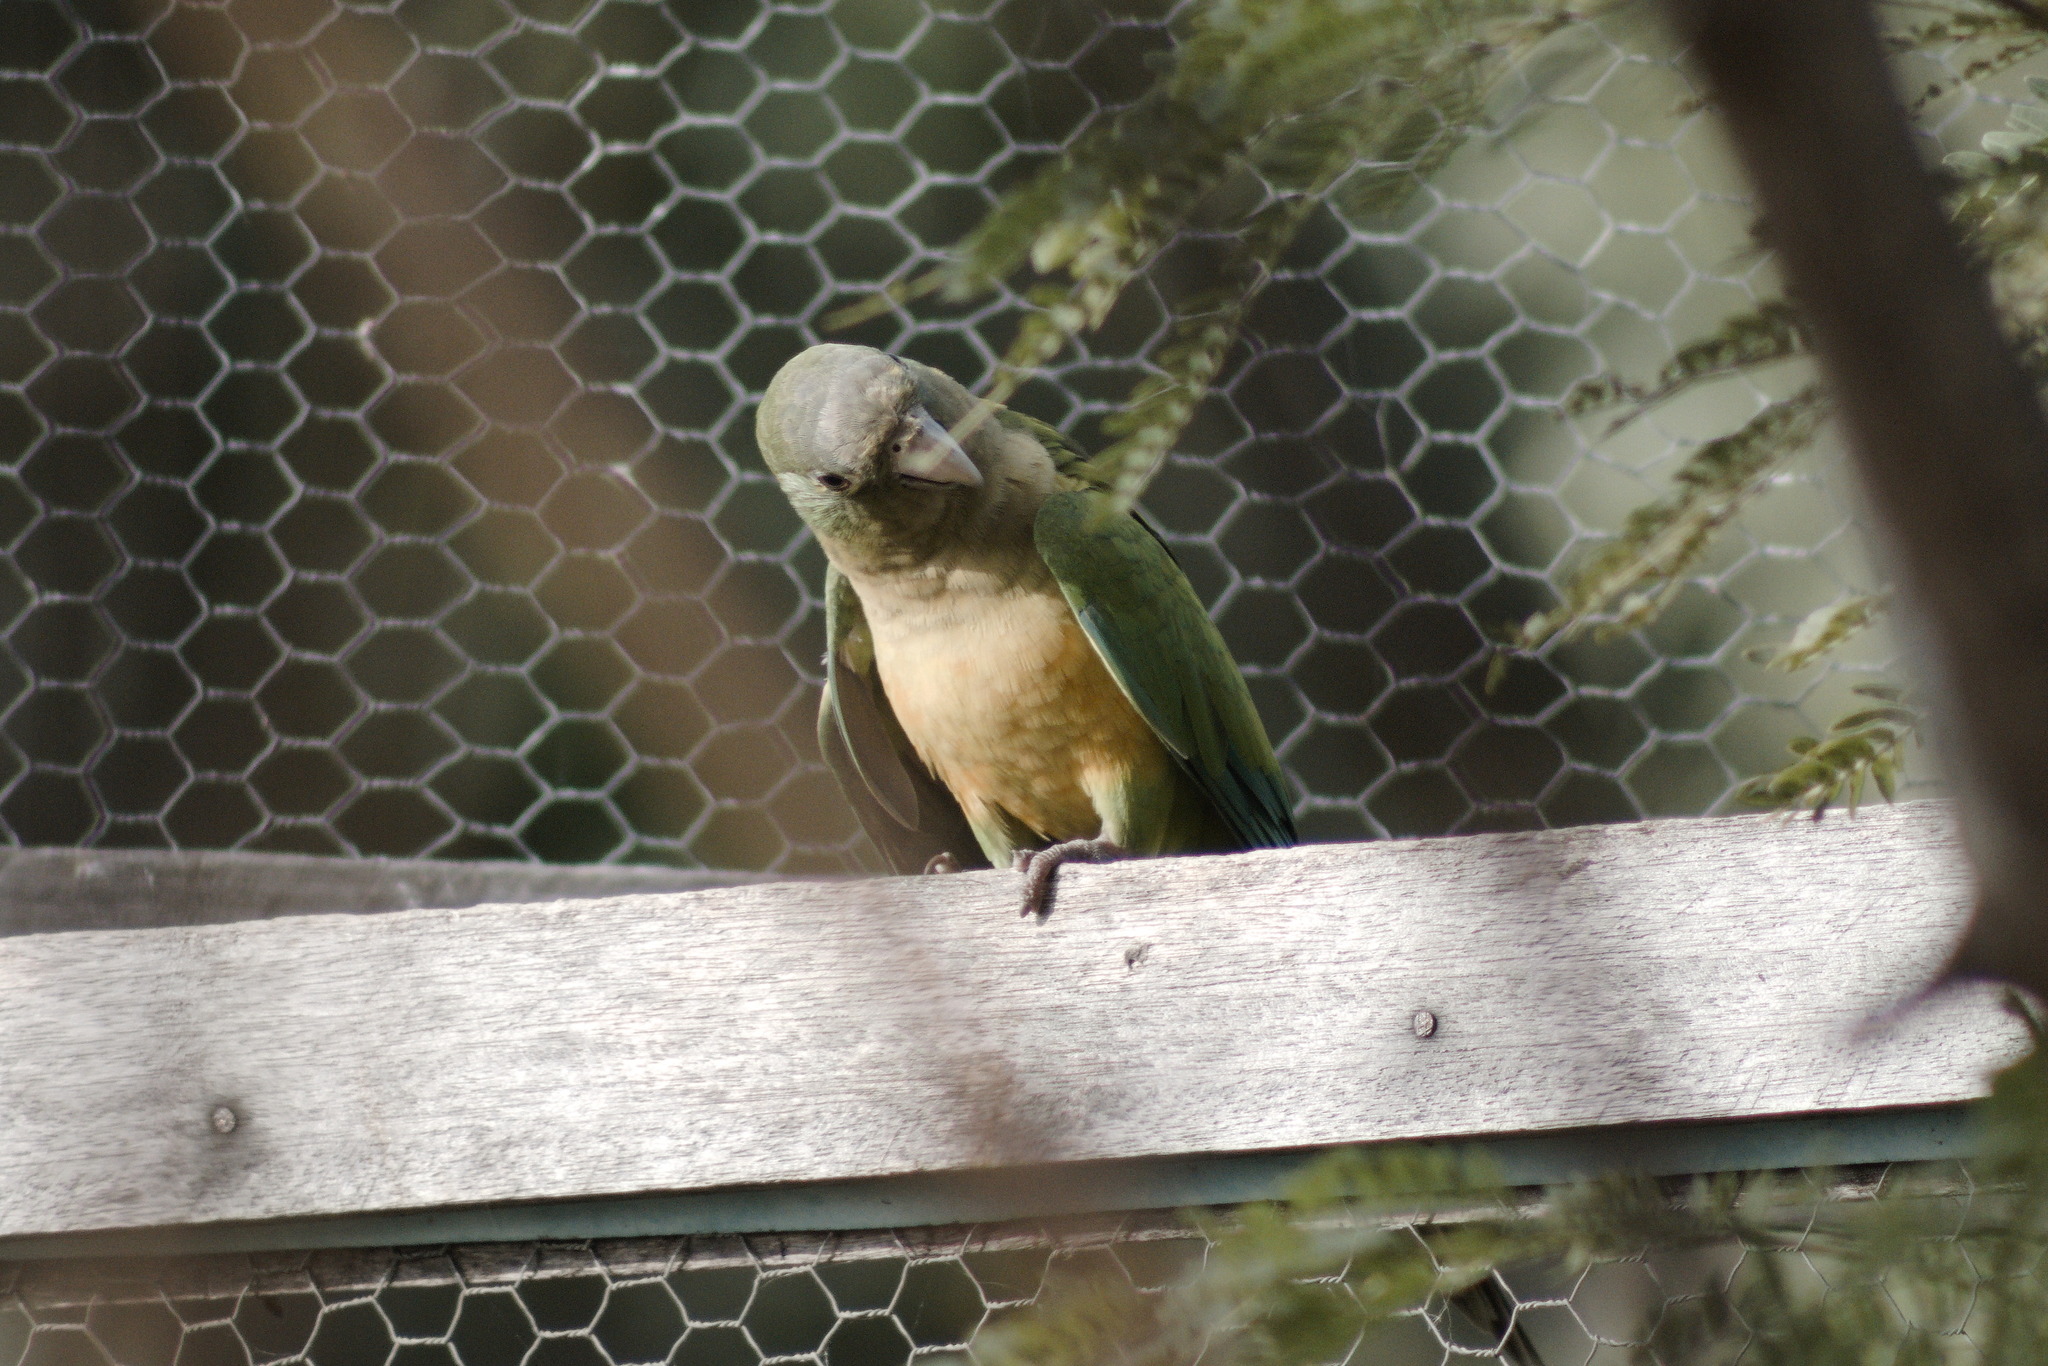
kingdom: Animalia
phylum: Chordata
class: Aves
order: Psittaciformes
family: Psittacidae
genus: Aratinga
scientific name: Aratinga cactorum
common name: Caatinga parakeet
